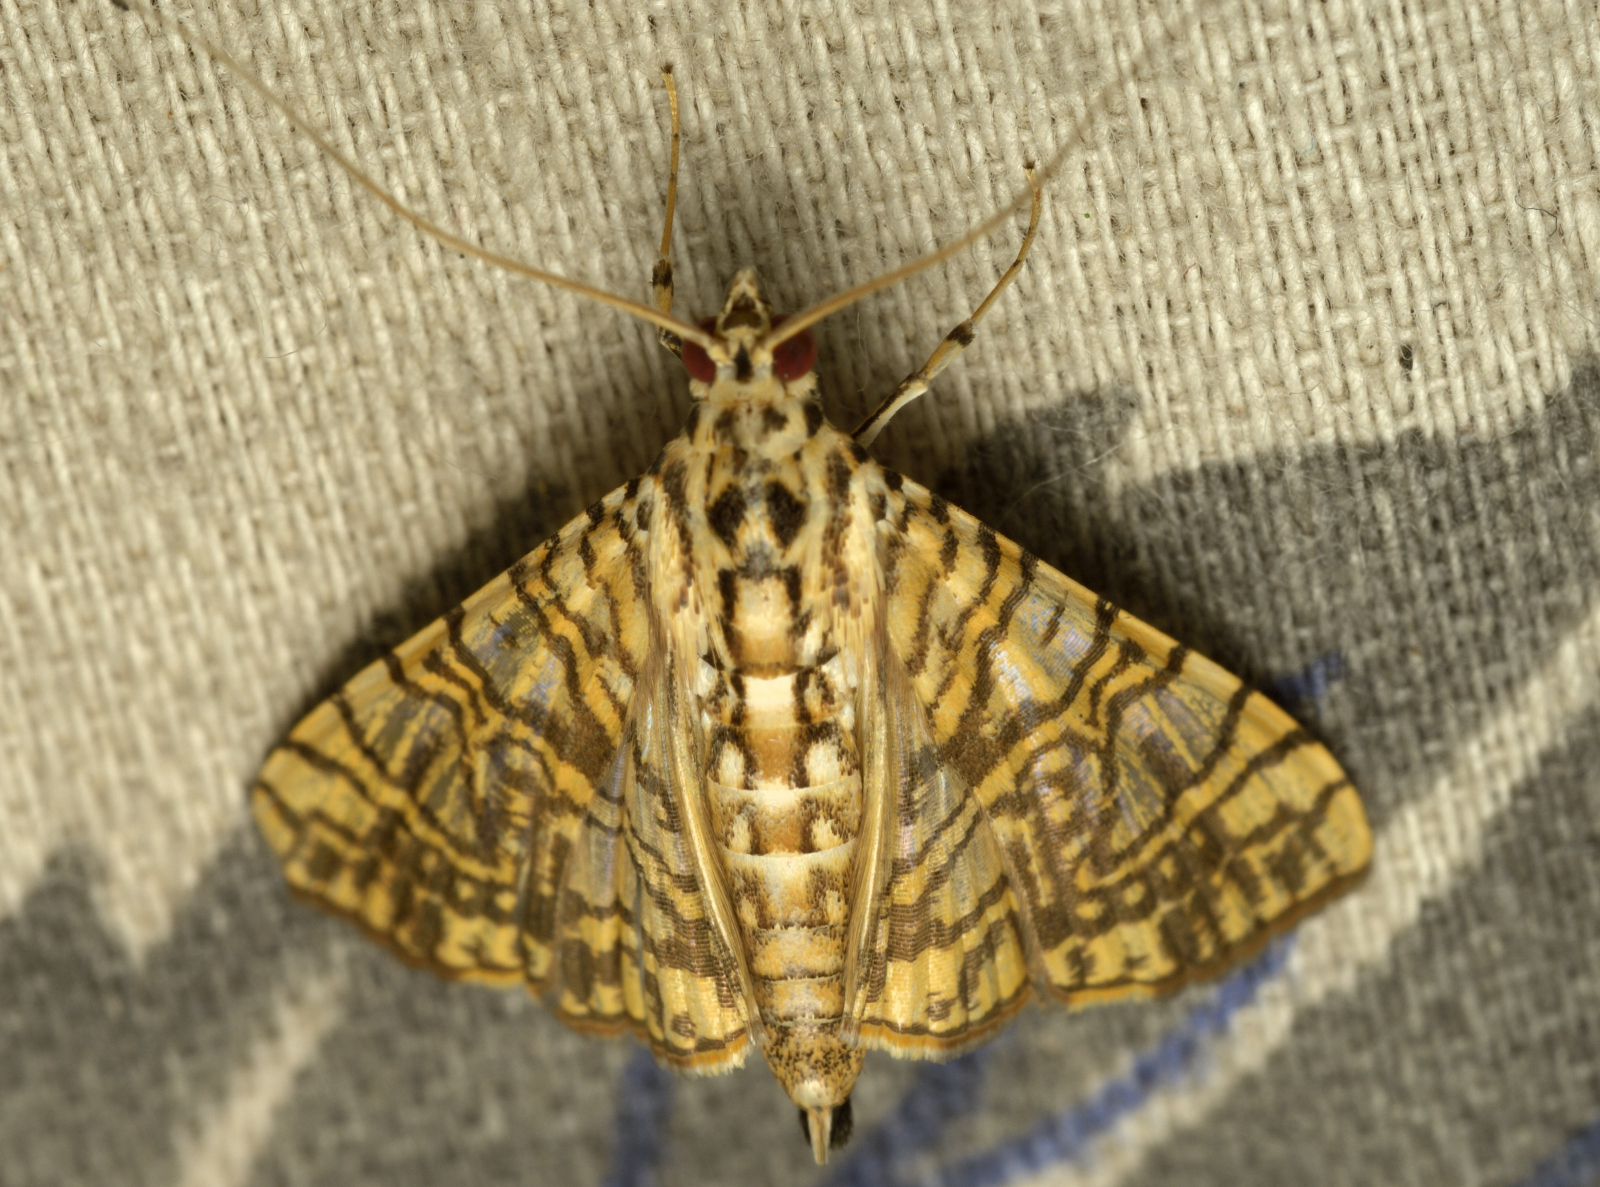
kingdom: Animalia
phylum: Arthropoda
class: Insecta
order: Lepidoptera
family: Crambidae
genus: Glyphodes
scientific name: Glyphodes caesalis
